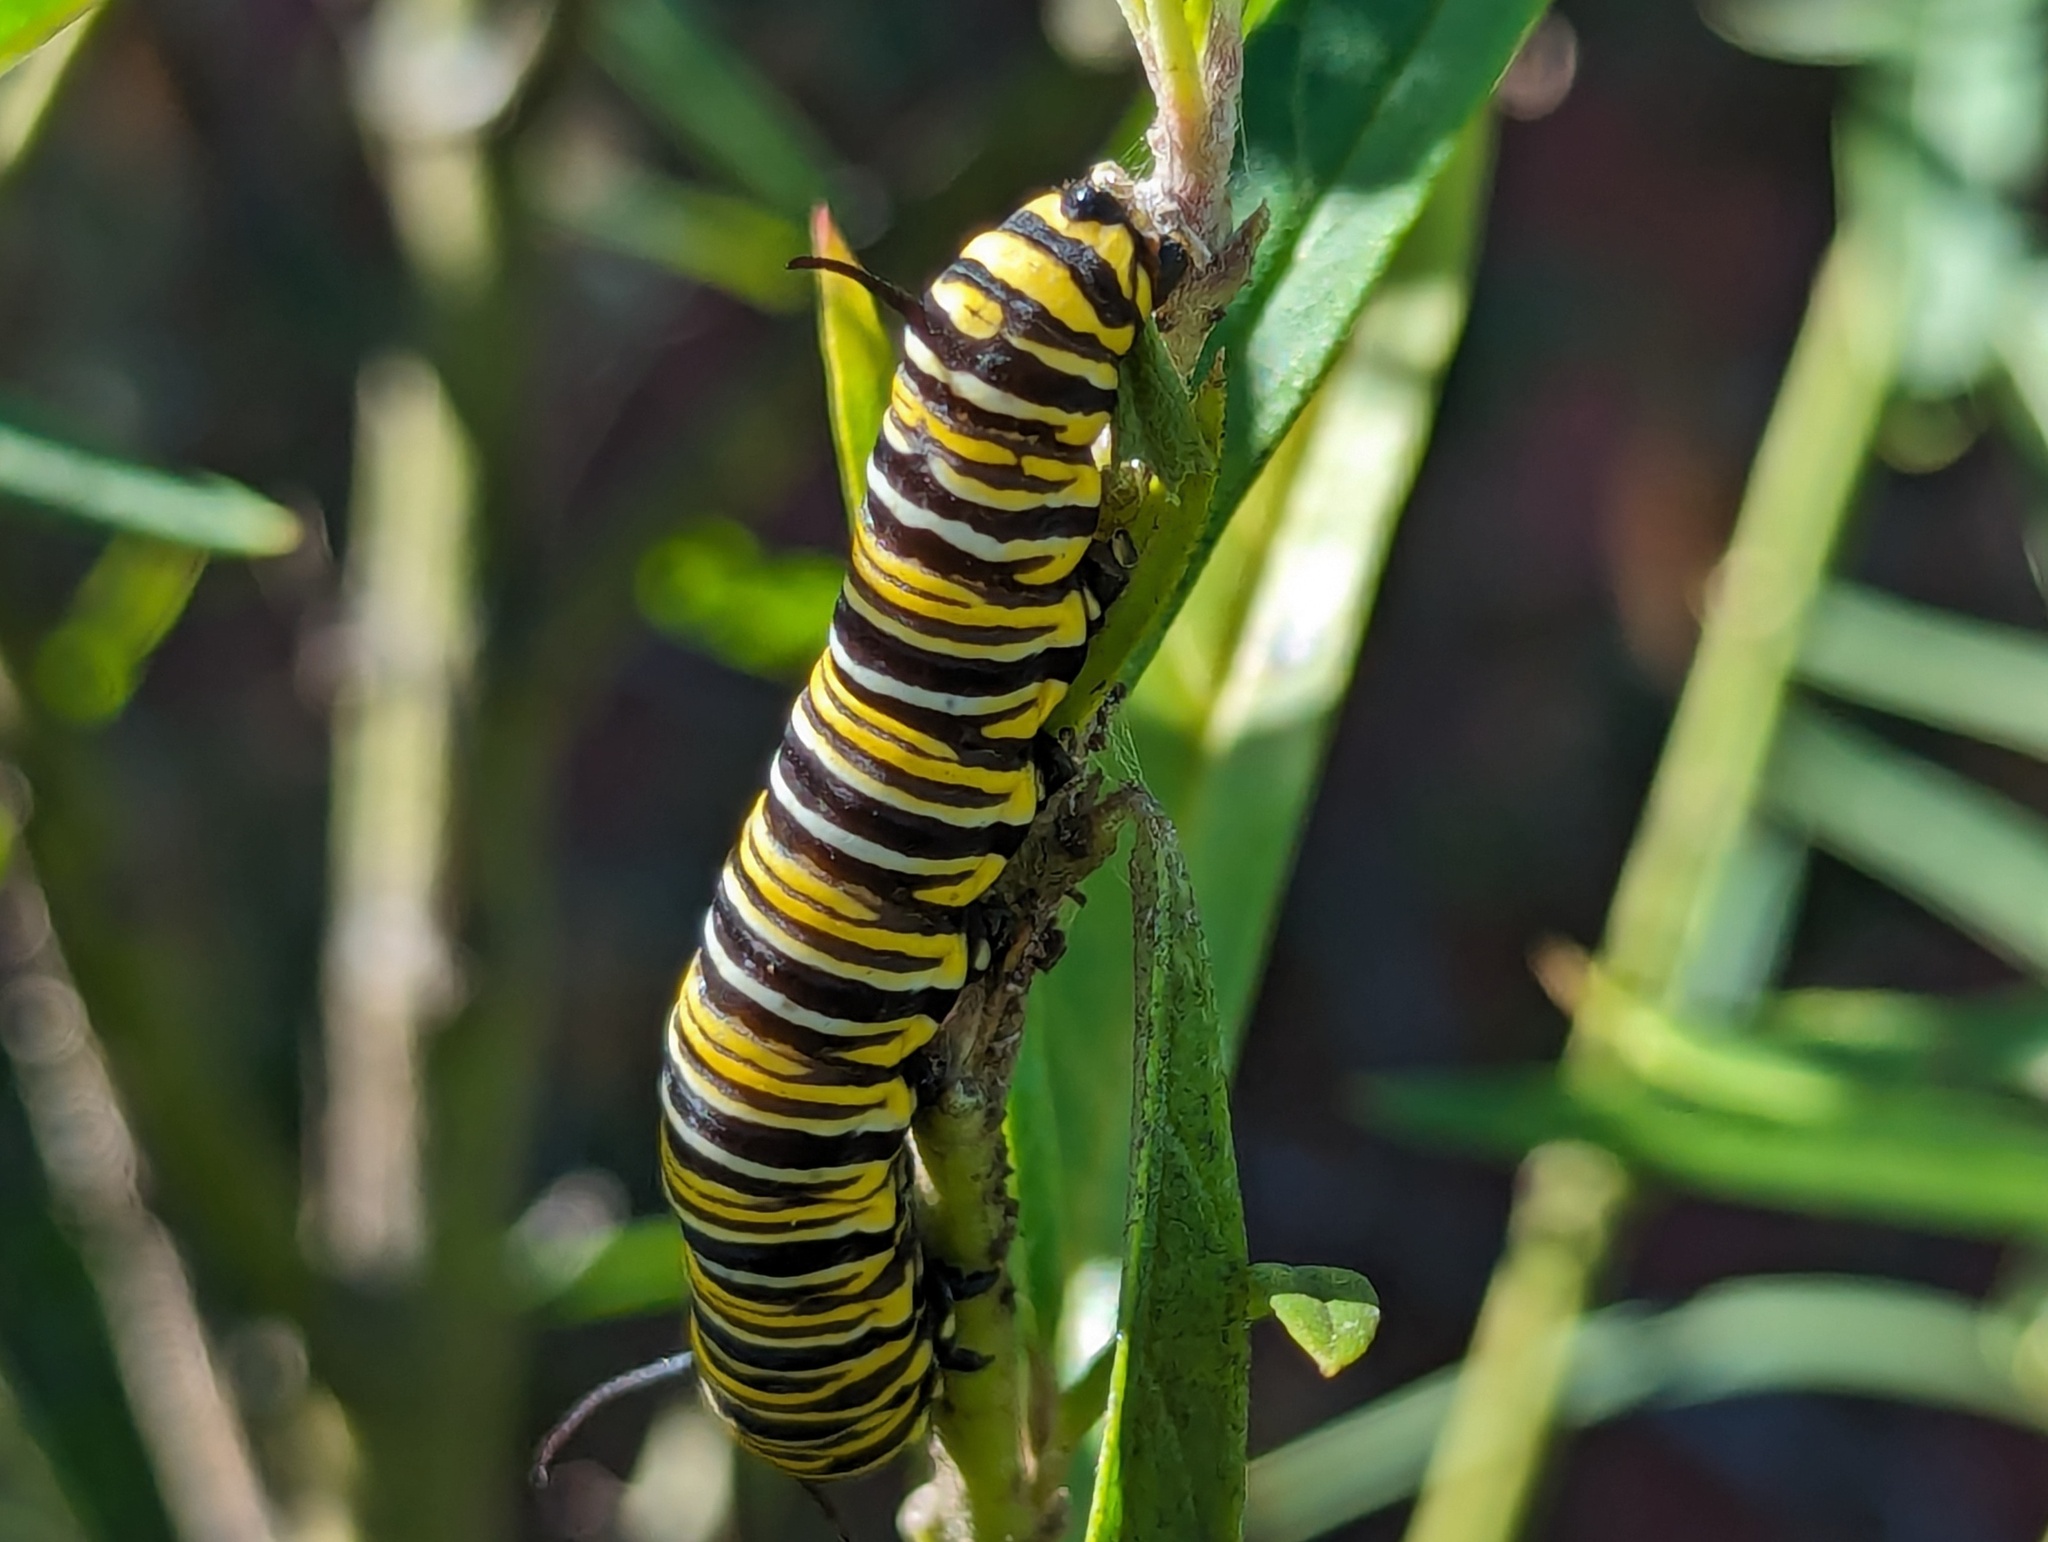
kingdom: Animalia
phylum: Arthropoda
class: Insecta
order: Lepidoptera
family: Nymphalidae
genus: Danaus
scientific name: Danaus plexippus
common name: Monarch
